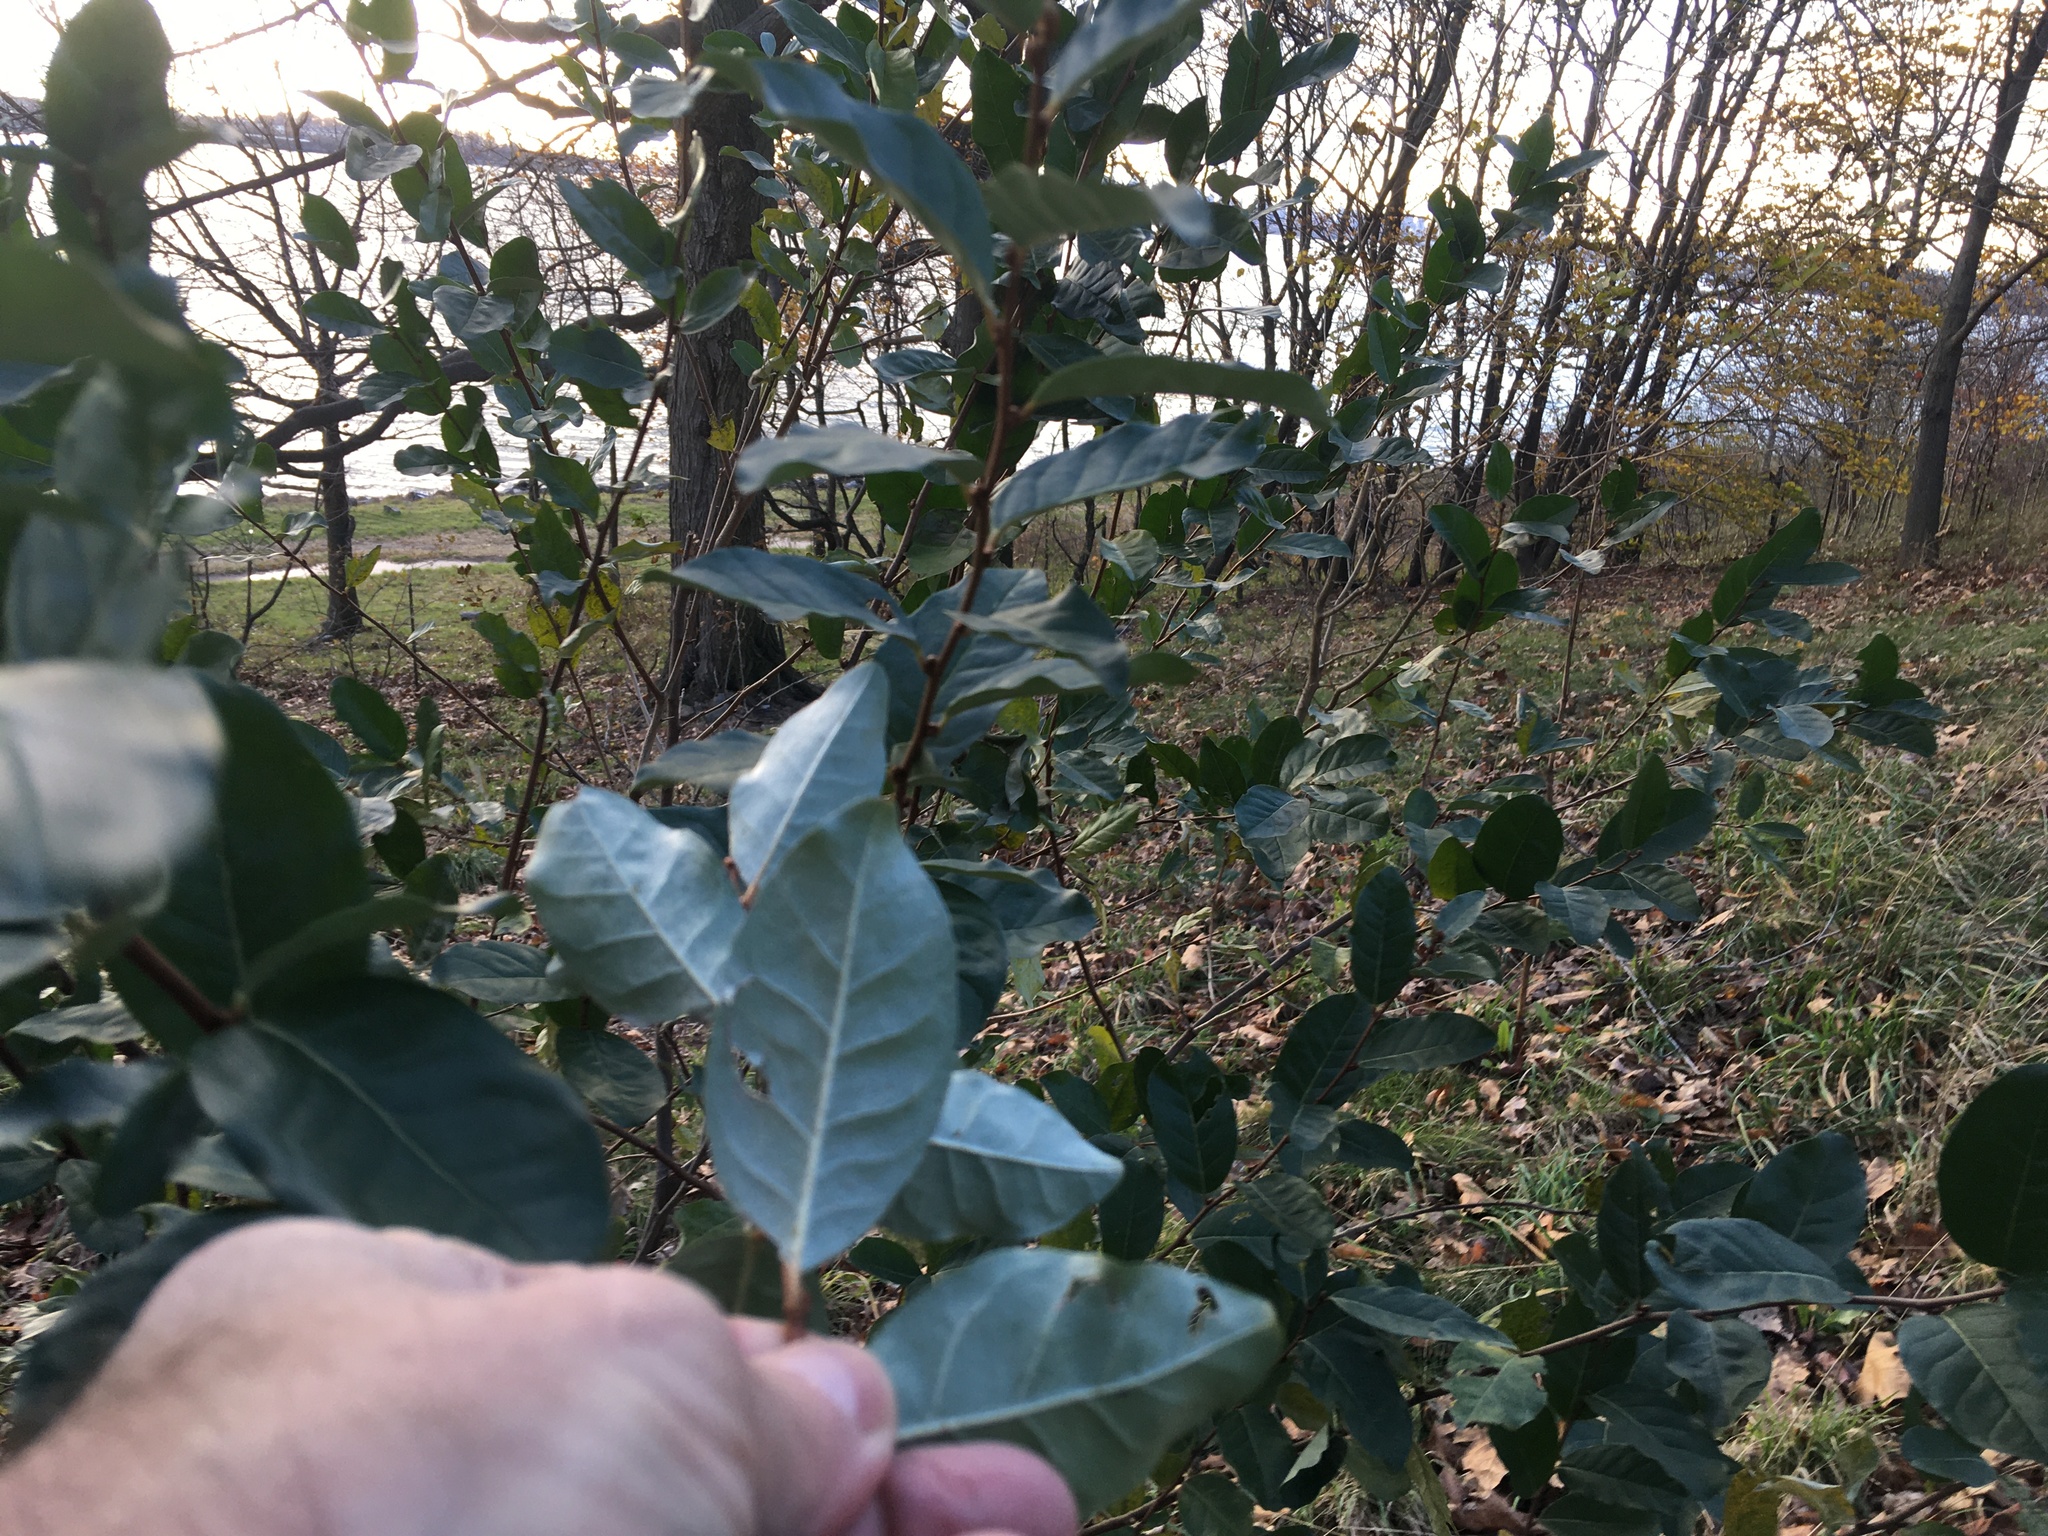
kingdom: Plantae
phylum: Tracheophyta
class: Magnoliopsida
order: Rosales
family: Elaeagnaceae
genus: Elaeagnus
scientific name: Elaeagnus umbellata
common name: Autumn olive
